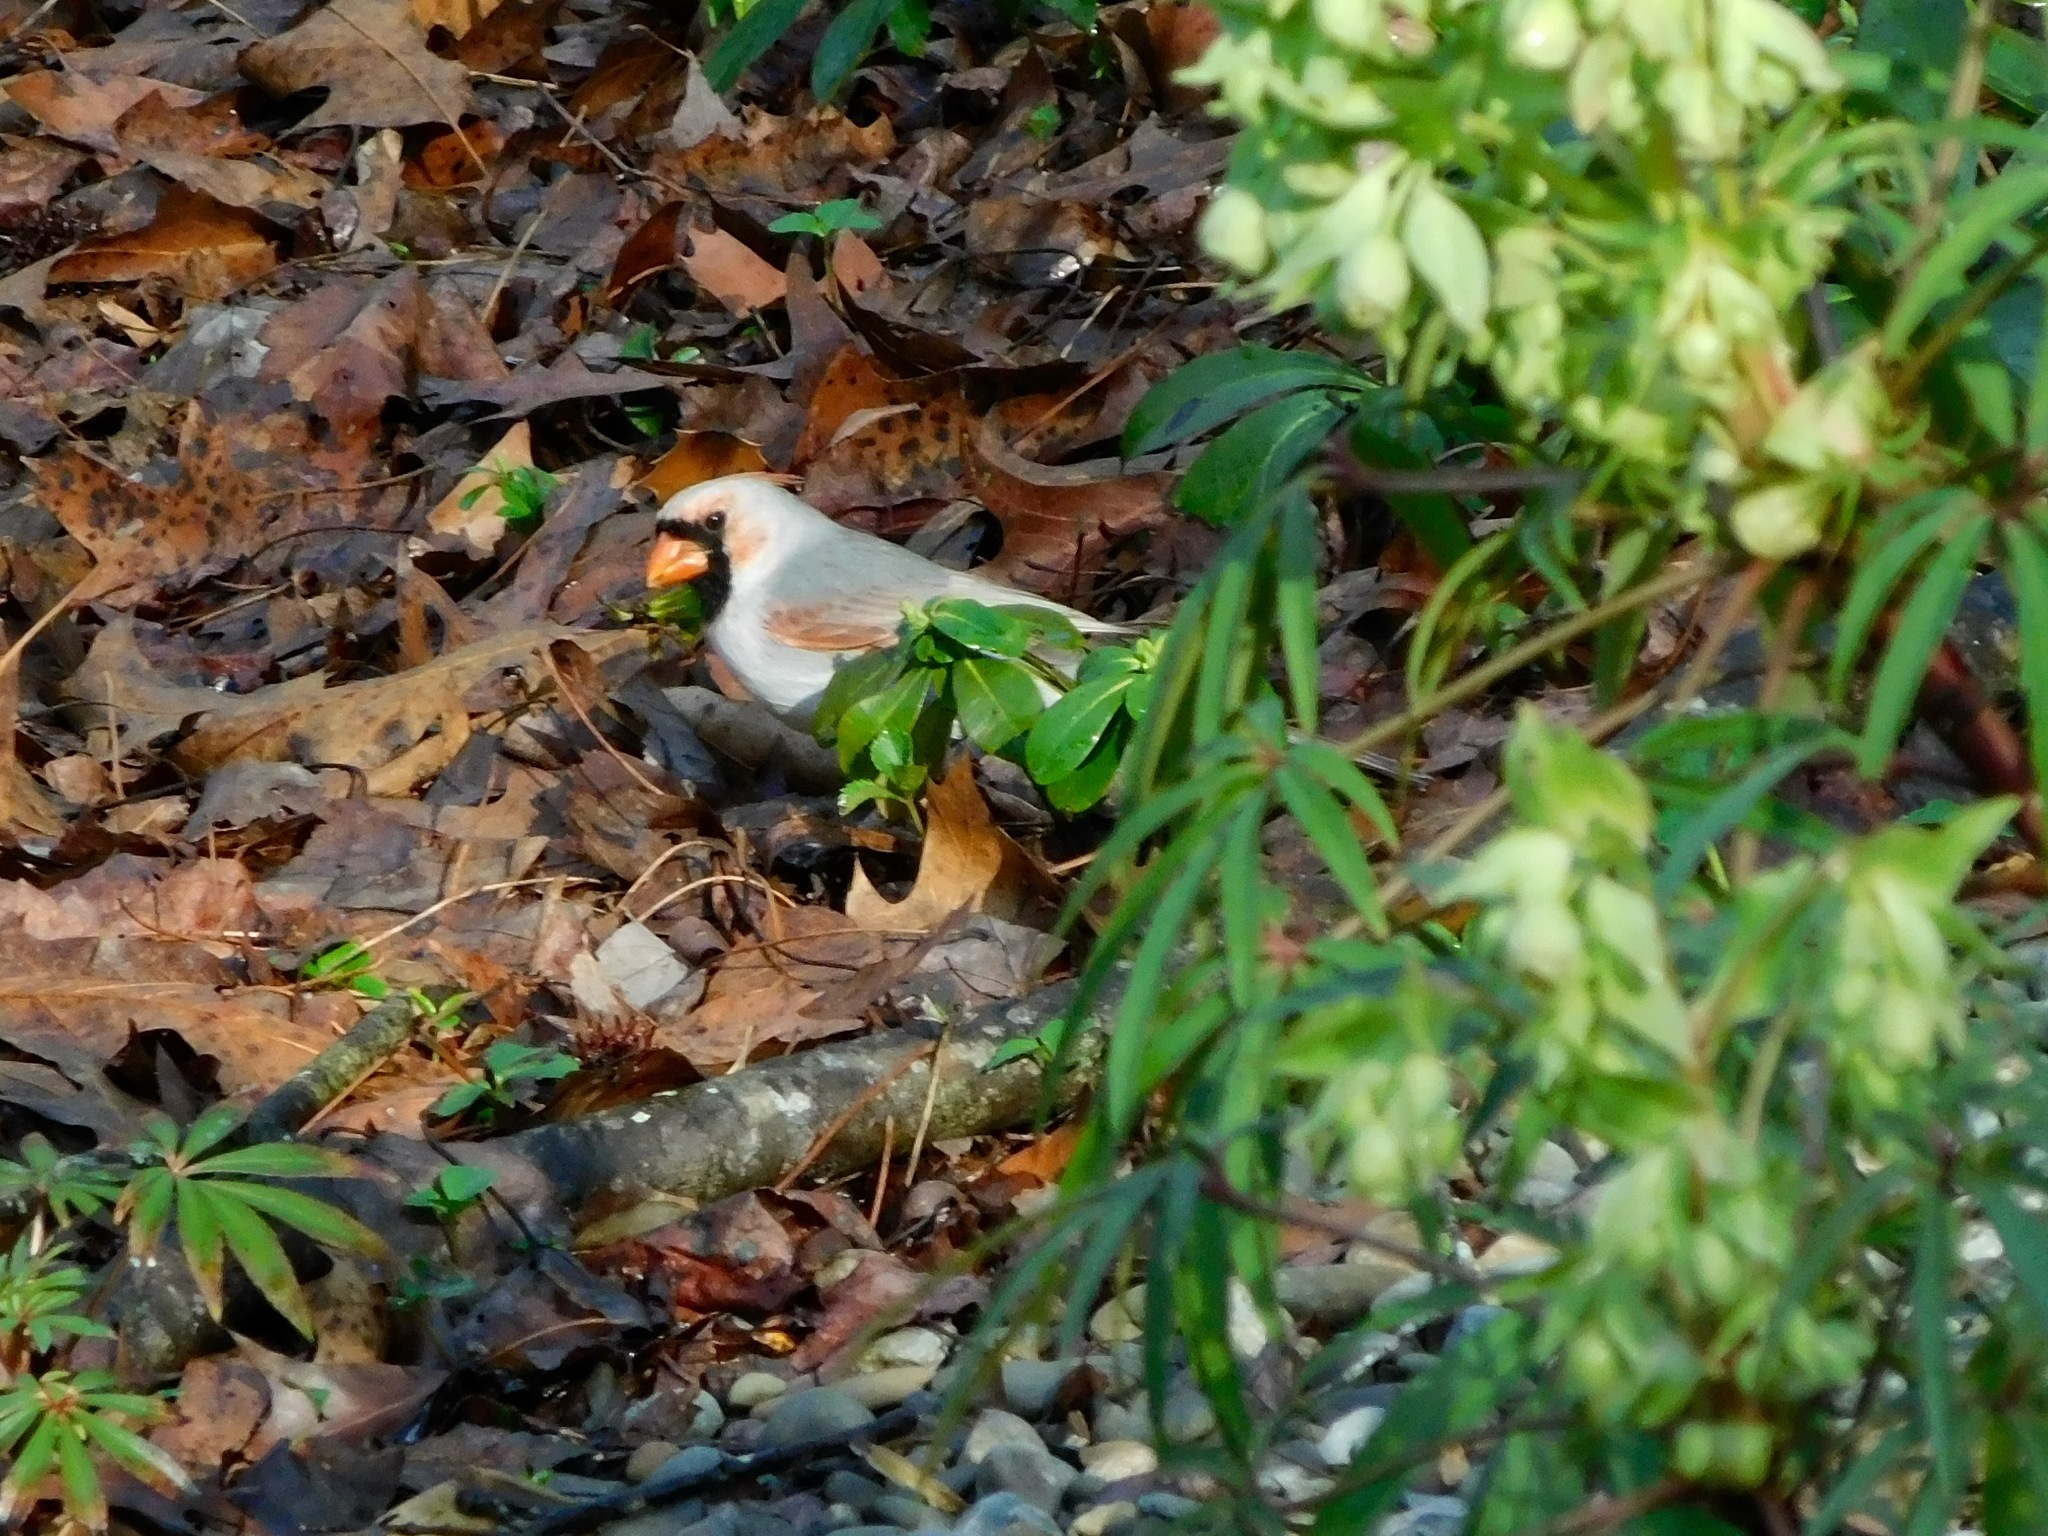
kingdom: Animalia
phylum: Chordata
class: Aves
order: Passeriformes
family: Cardinalidae
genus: Cardinalis
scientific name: Cardinalis cardinalis
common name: Northern cardinal
